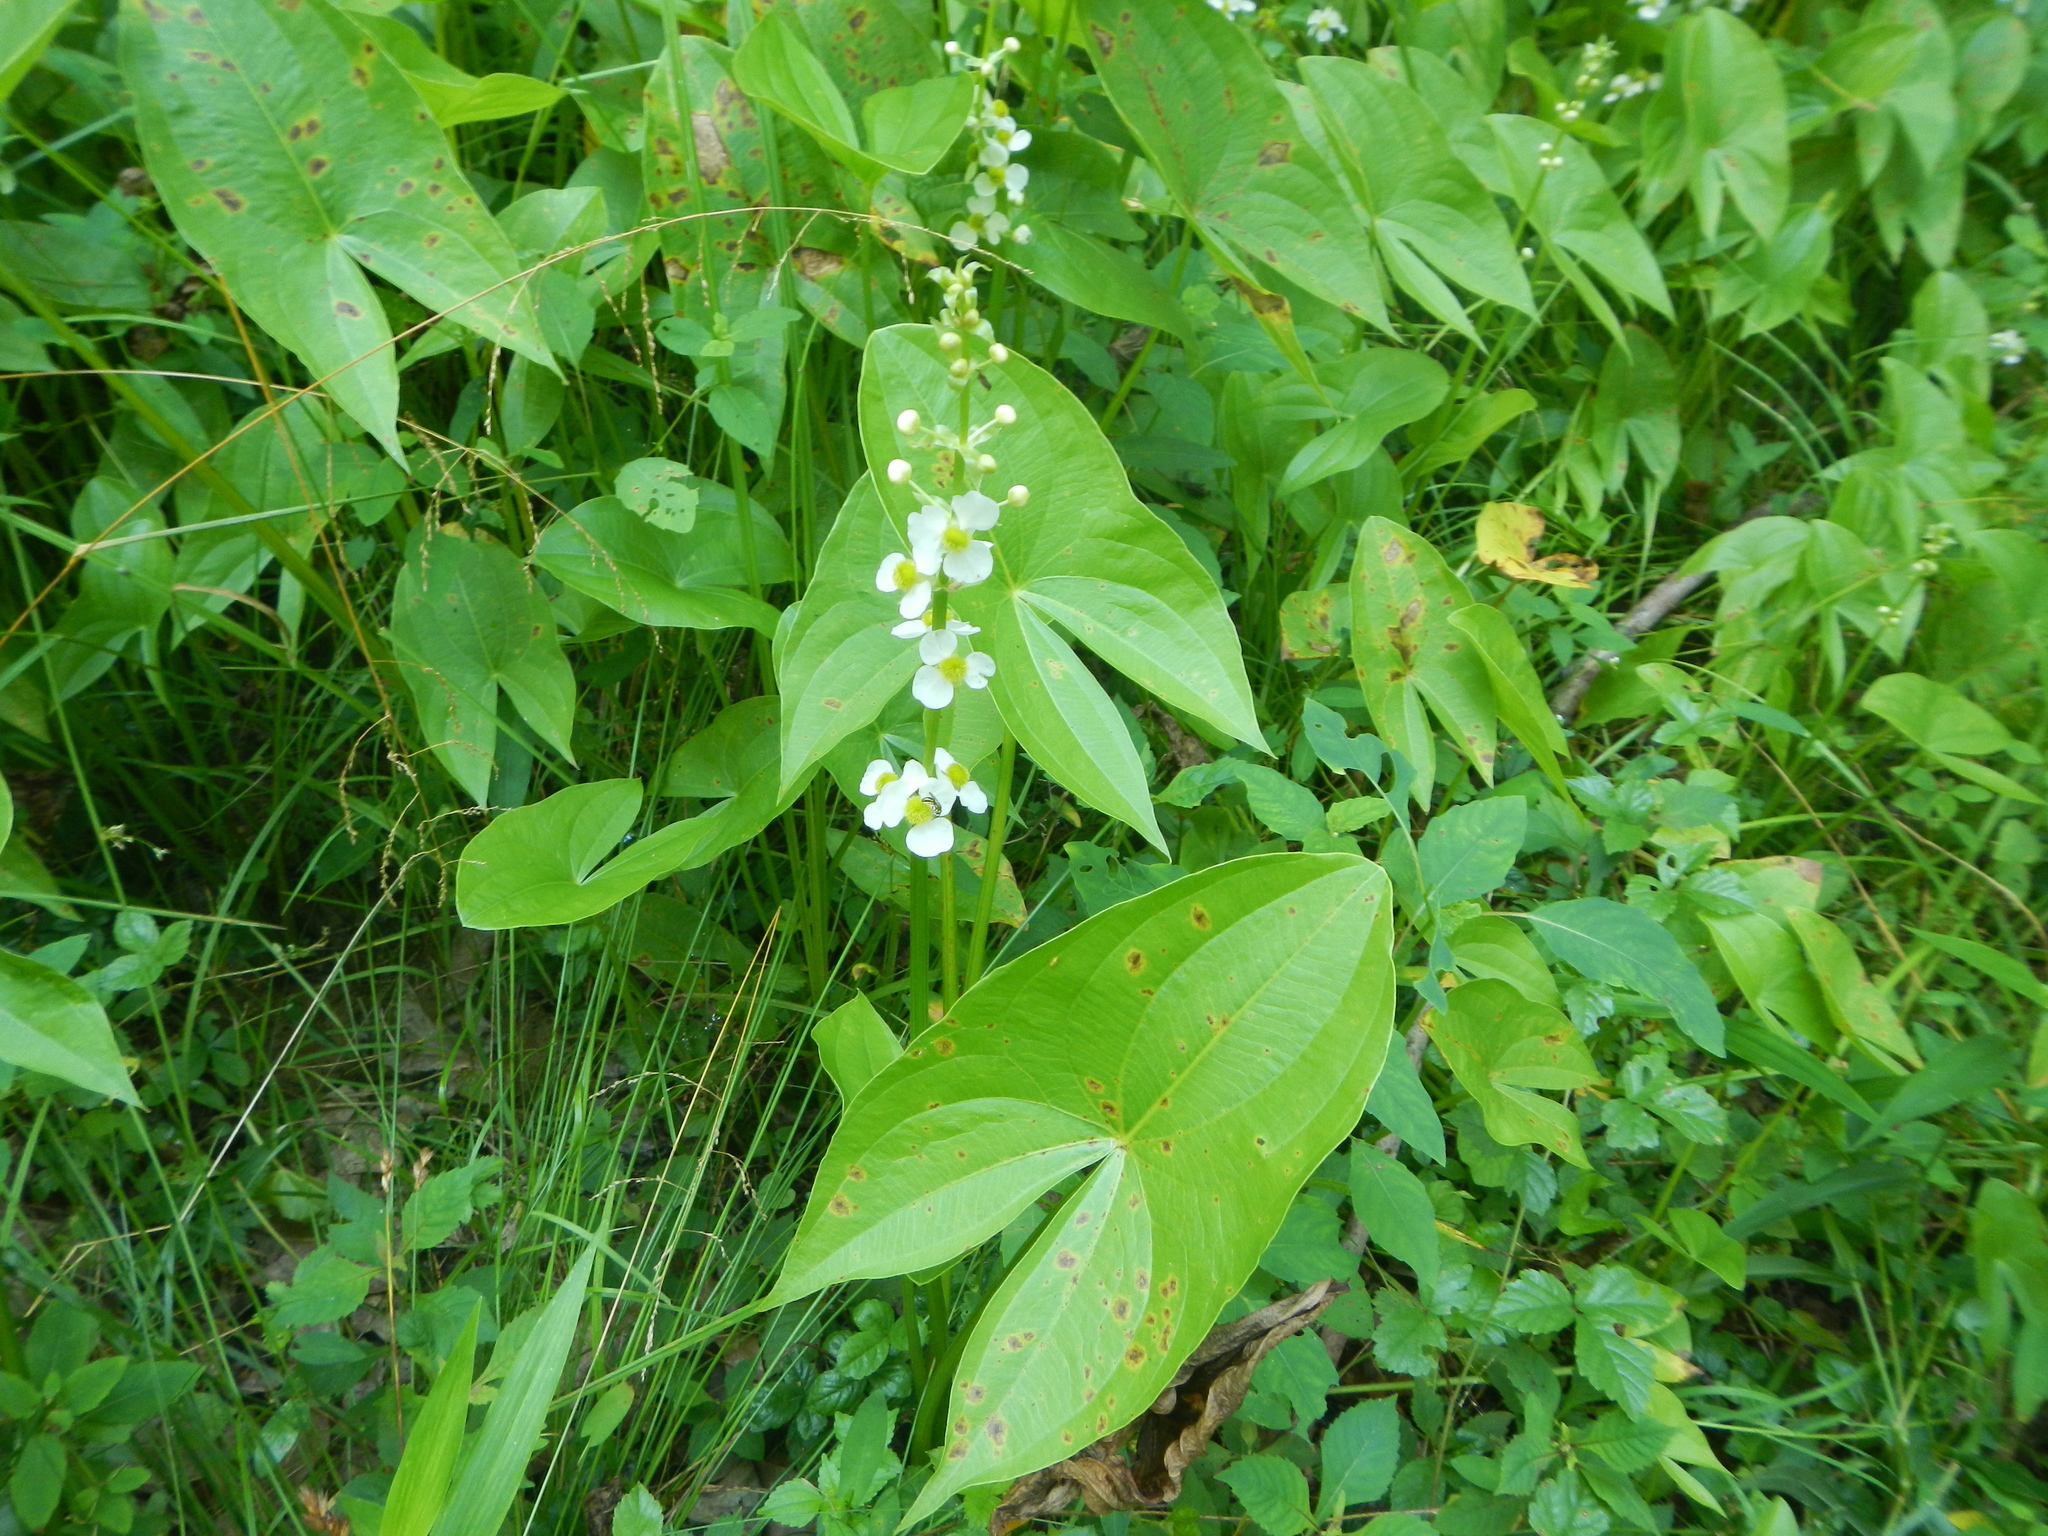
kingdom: Plantae
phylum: Tracheophyta
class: Liliopsida
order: Alismatales
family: Alismataceae
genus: Sagittaria
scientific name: Sagittaria australis
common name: Appalachian arrowhead
